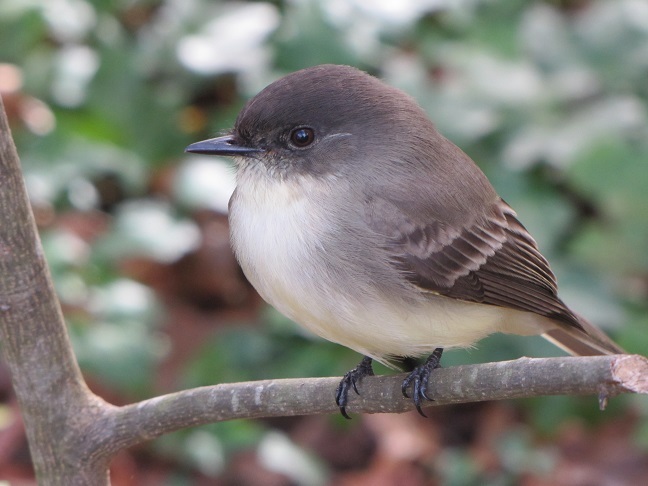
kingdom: Animalia
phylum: Chordata
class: Aves
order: Passeriformes
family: Tyrannidae
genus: Sayornis
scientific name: Sayornis phoebe
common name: Eastern phoebe
